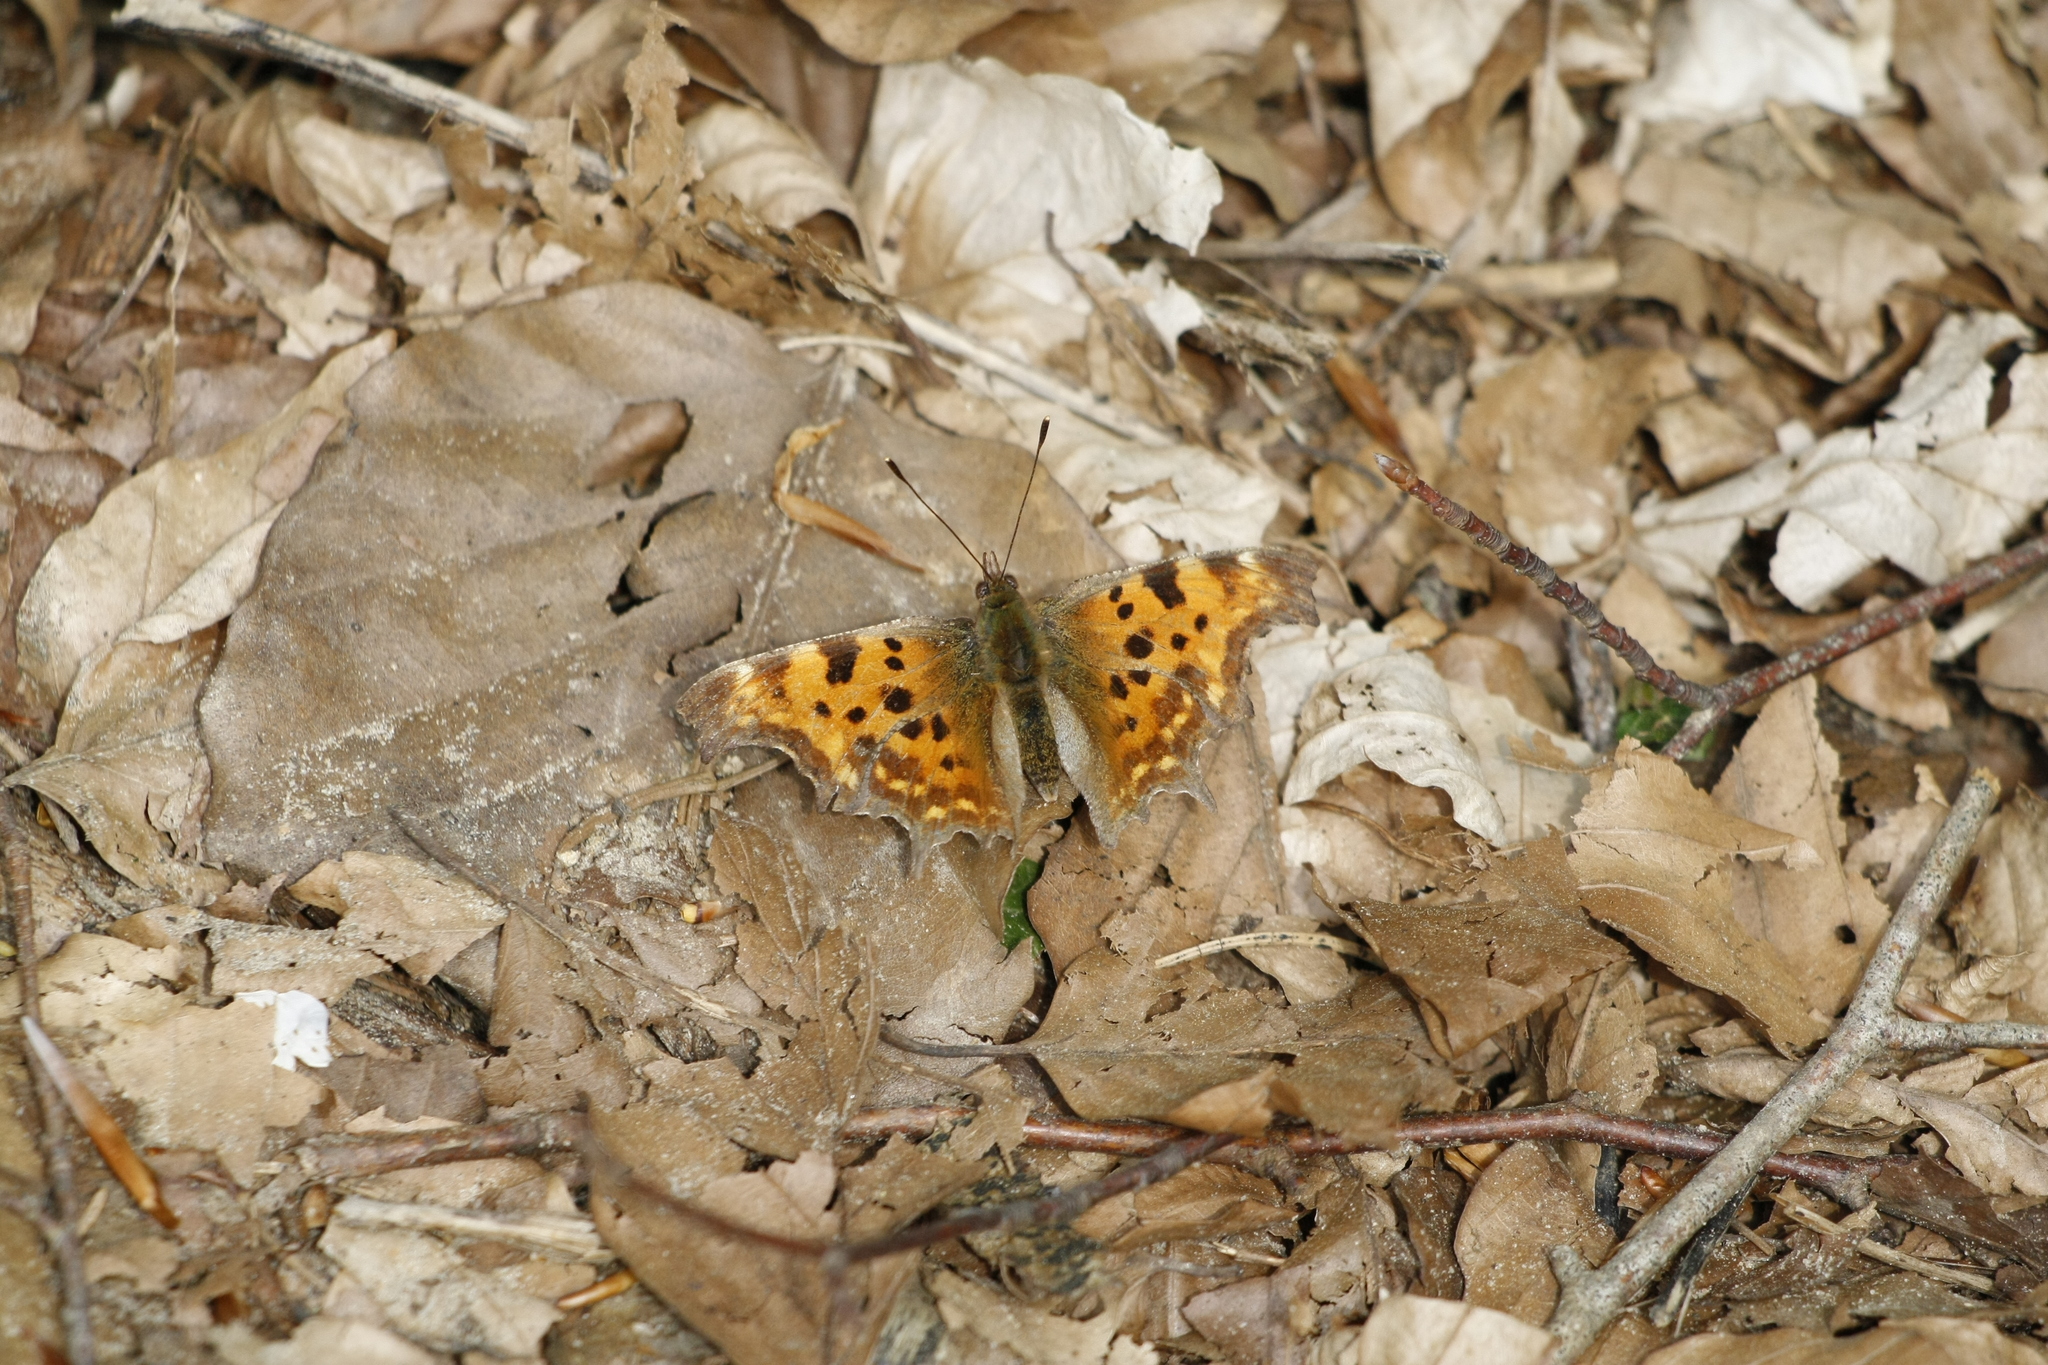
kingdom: Animalia
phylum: Arthropoda
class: Insecta
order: Lepidoptera
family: Nymphalidae
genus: Polygonia
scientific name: Polygonia c-album
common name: Comma
